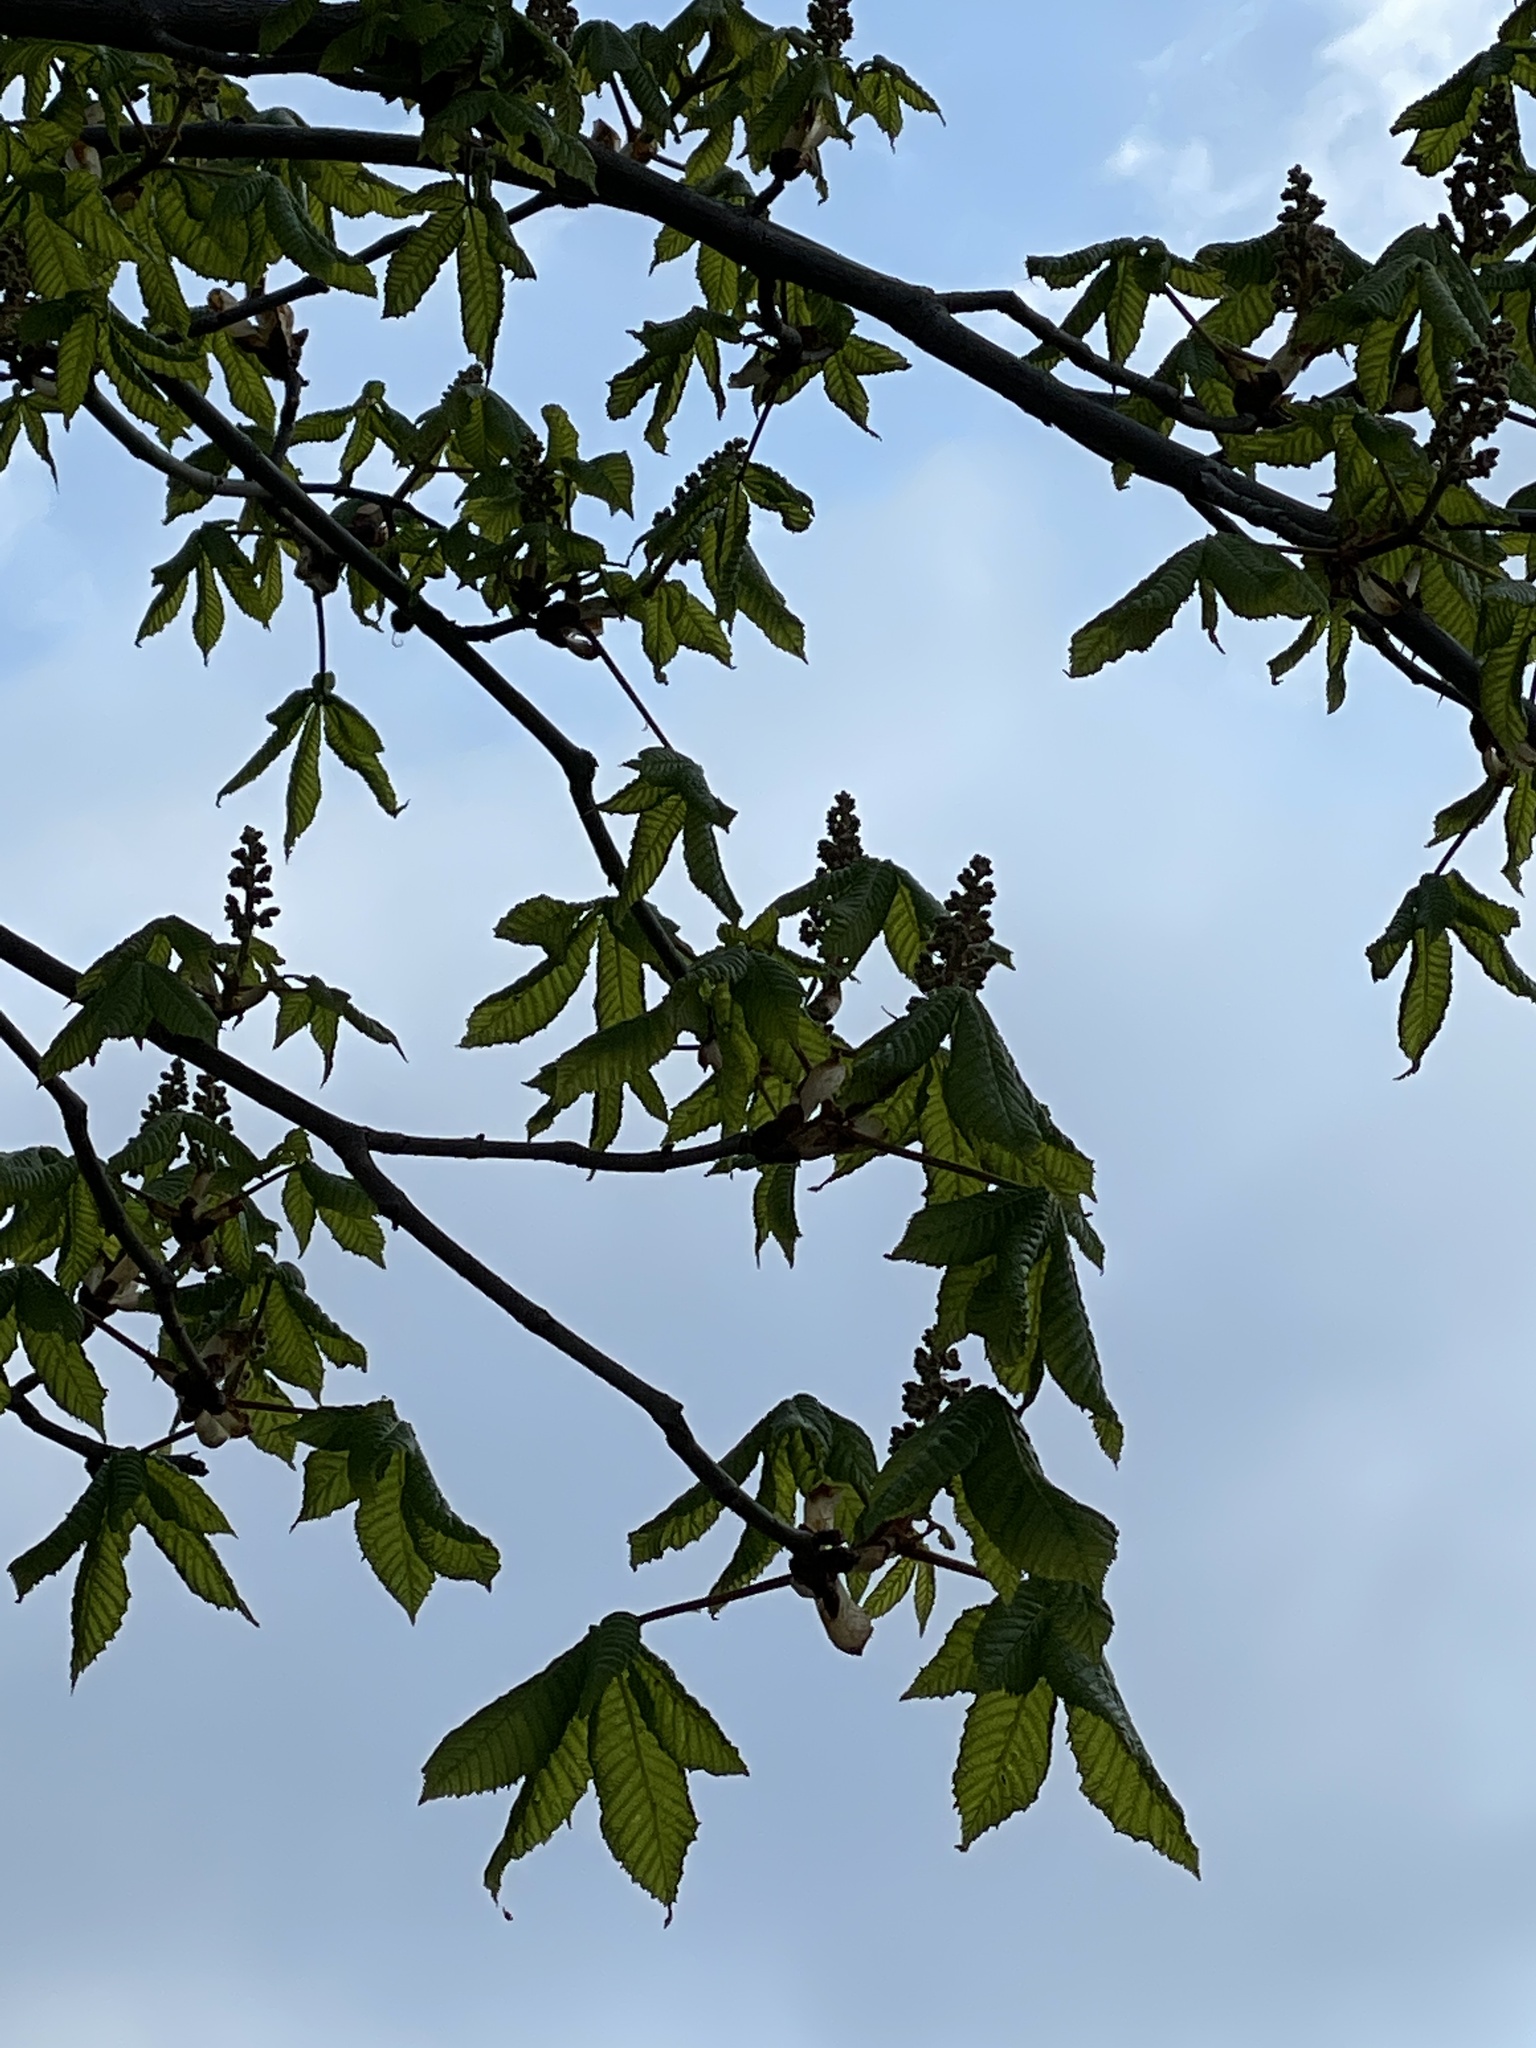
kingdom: Plantae
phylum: Tracheophyta
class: Magnoliopsida
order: Sapindales
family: Sapindaceae
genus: Aesculus
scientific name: Aesculus hippocastanum
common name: Horse-chestnut
